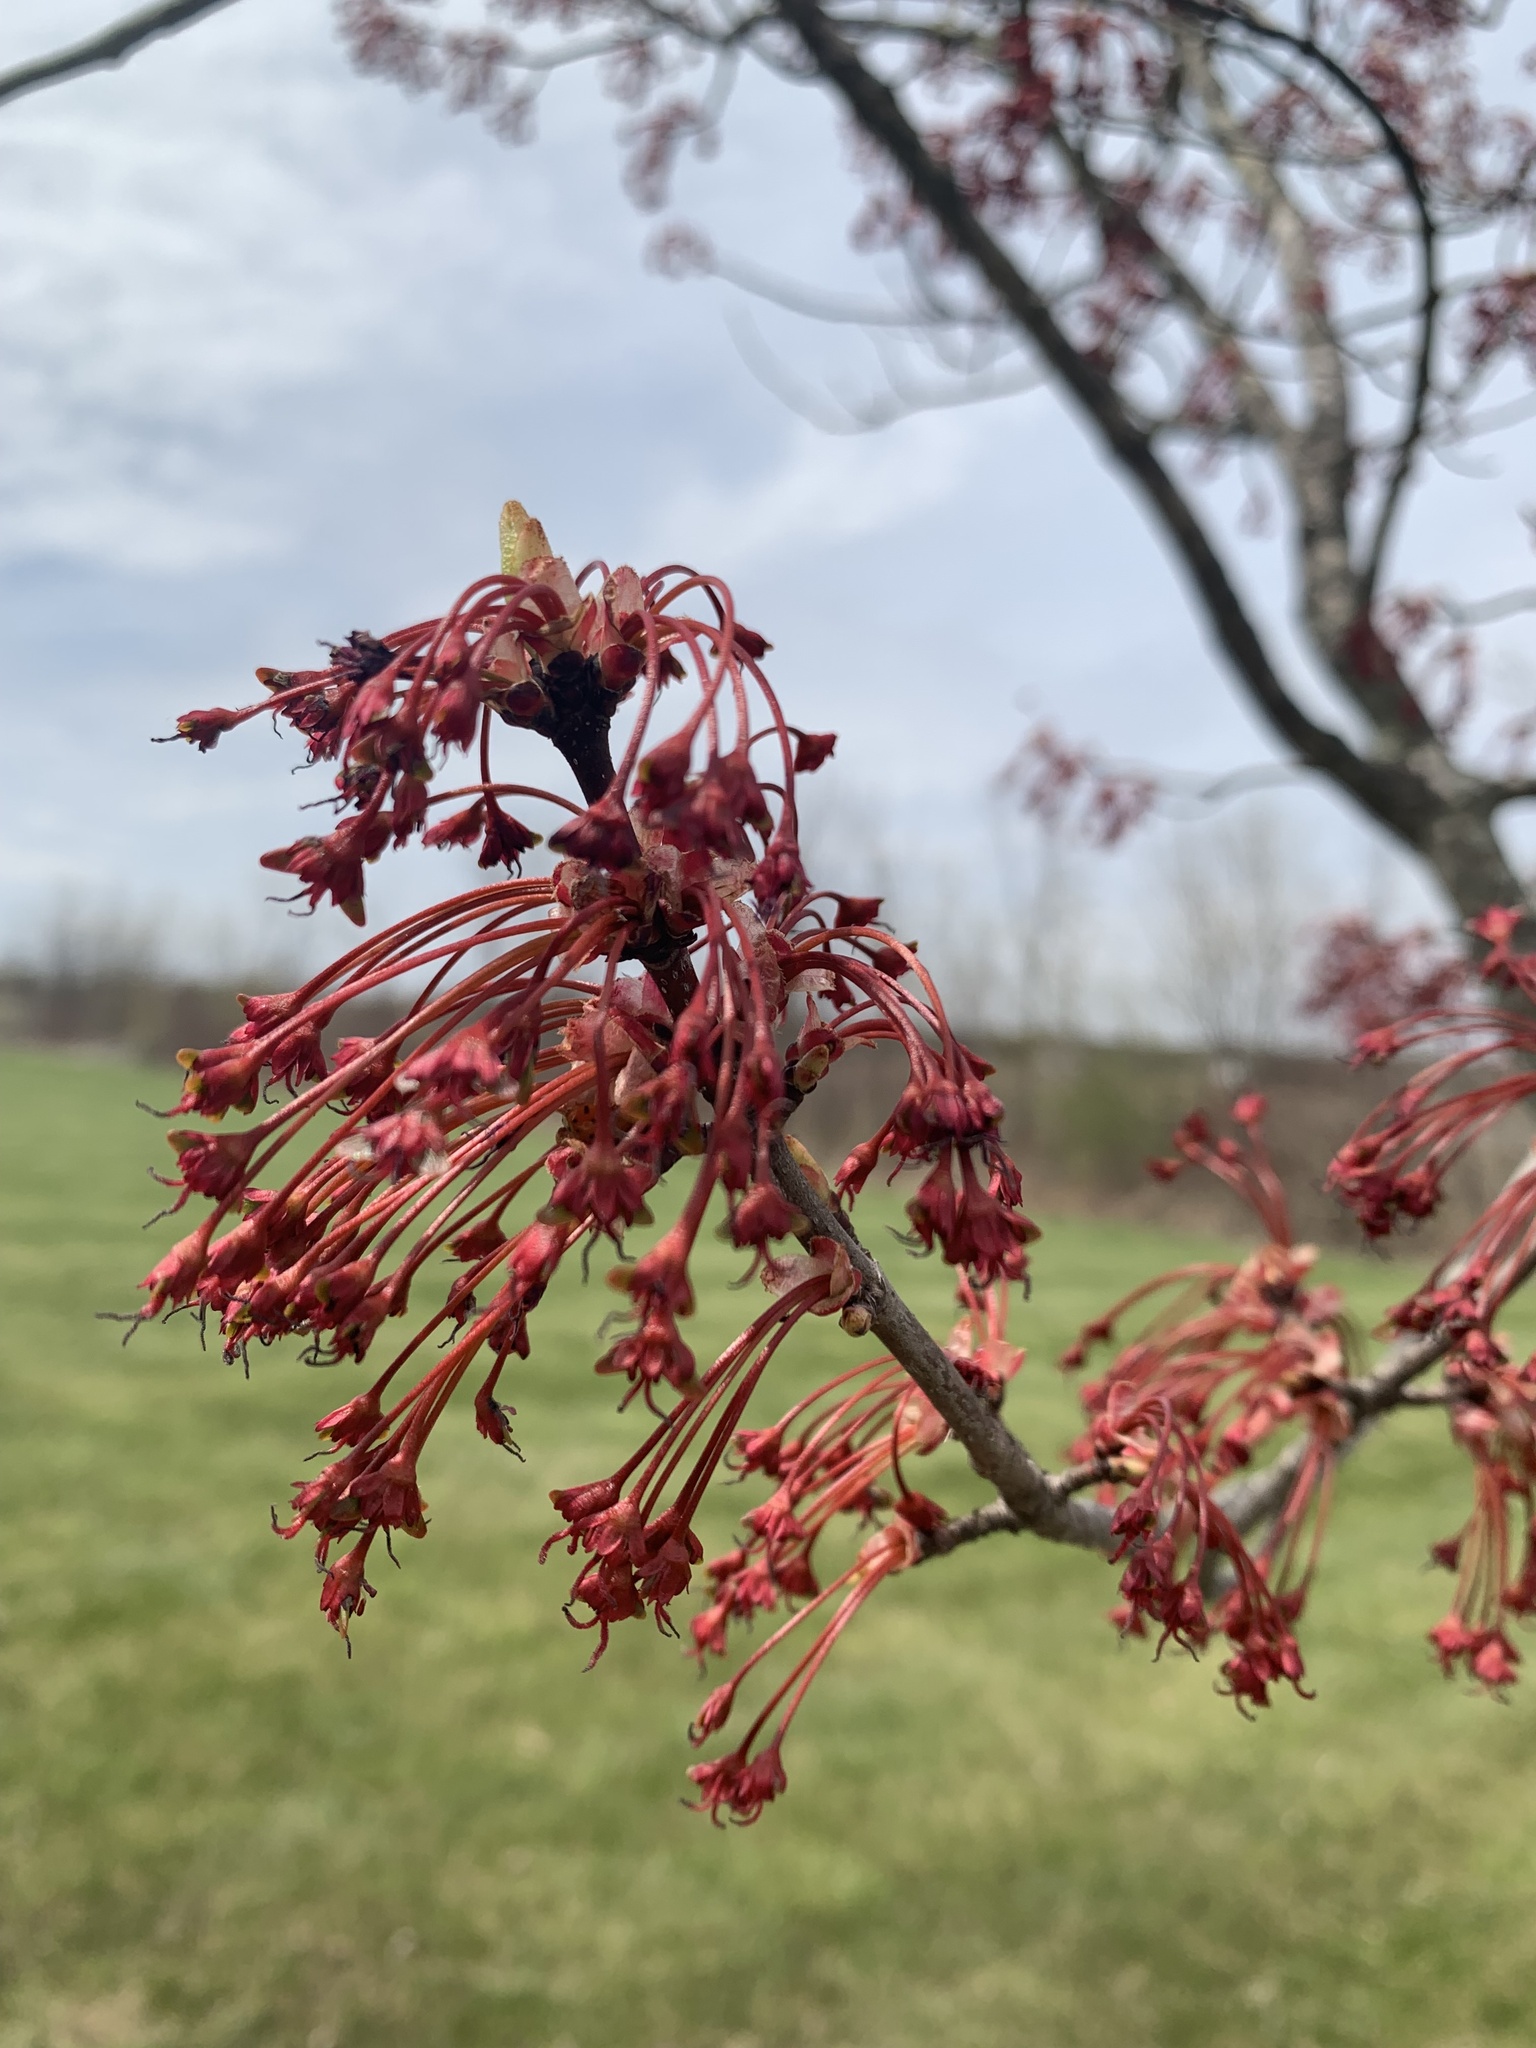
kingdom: Plantae
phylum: Tracheophyta
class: Magnoliopsida
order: Sapindales
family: Sapindaceae
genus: Acer
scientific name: Acer rubrum
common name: Red maple
